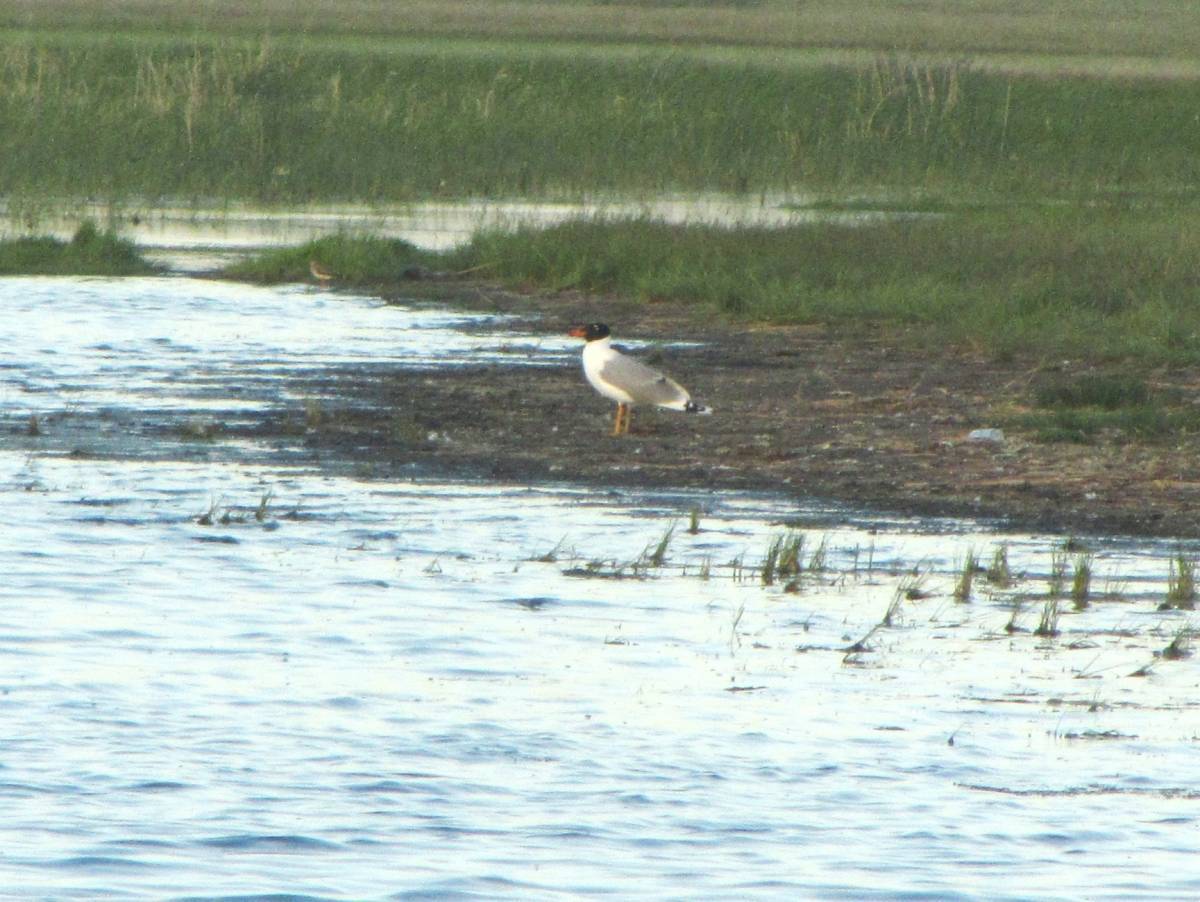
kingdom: Animalia
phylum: Chordata
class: Aves
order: Charadriiformes
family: Laridae
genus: Ichthyaetus
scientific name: Ichthyaetus ichthyaetus
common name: Pallas's gull
